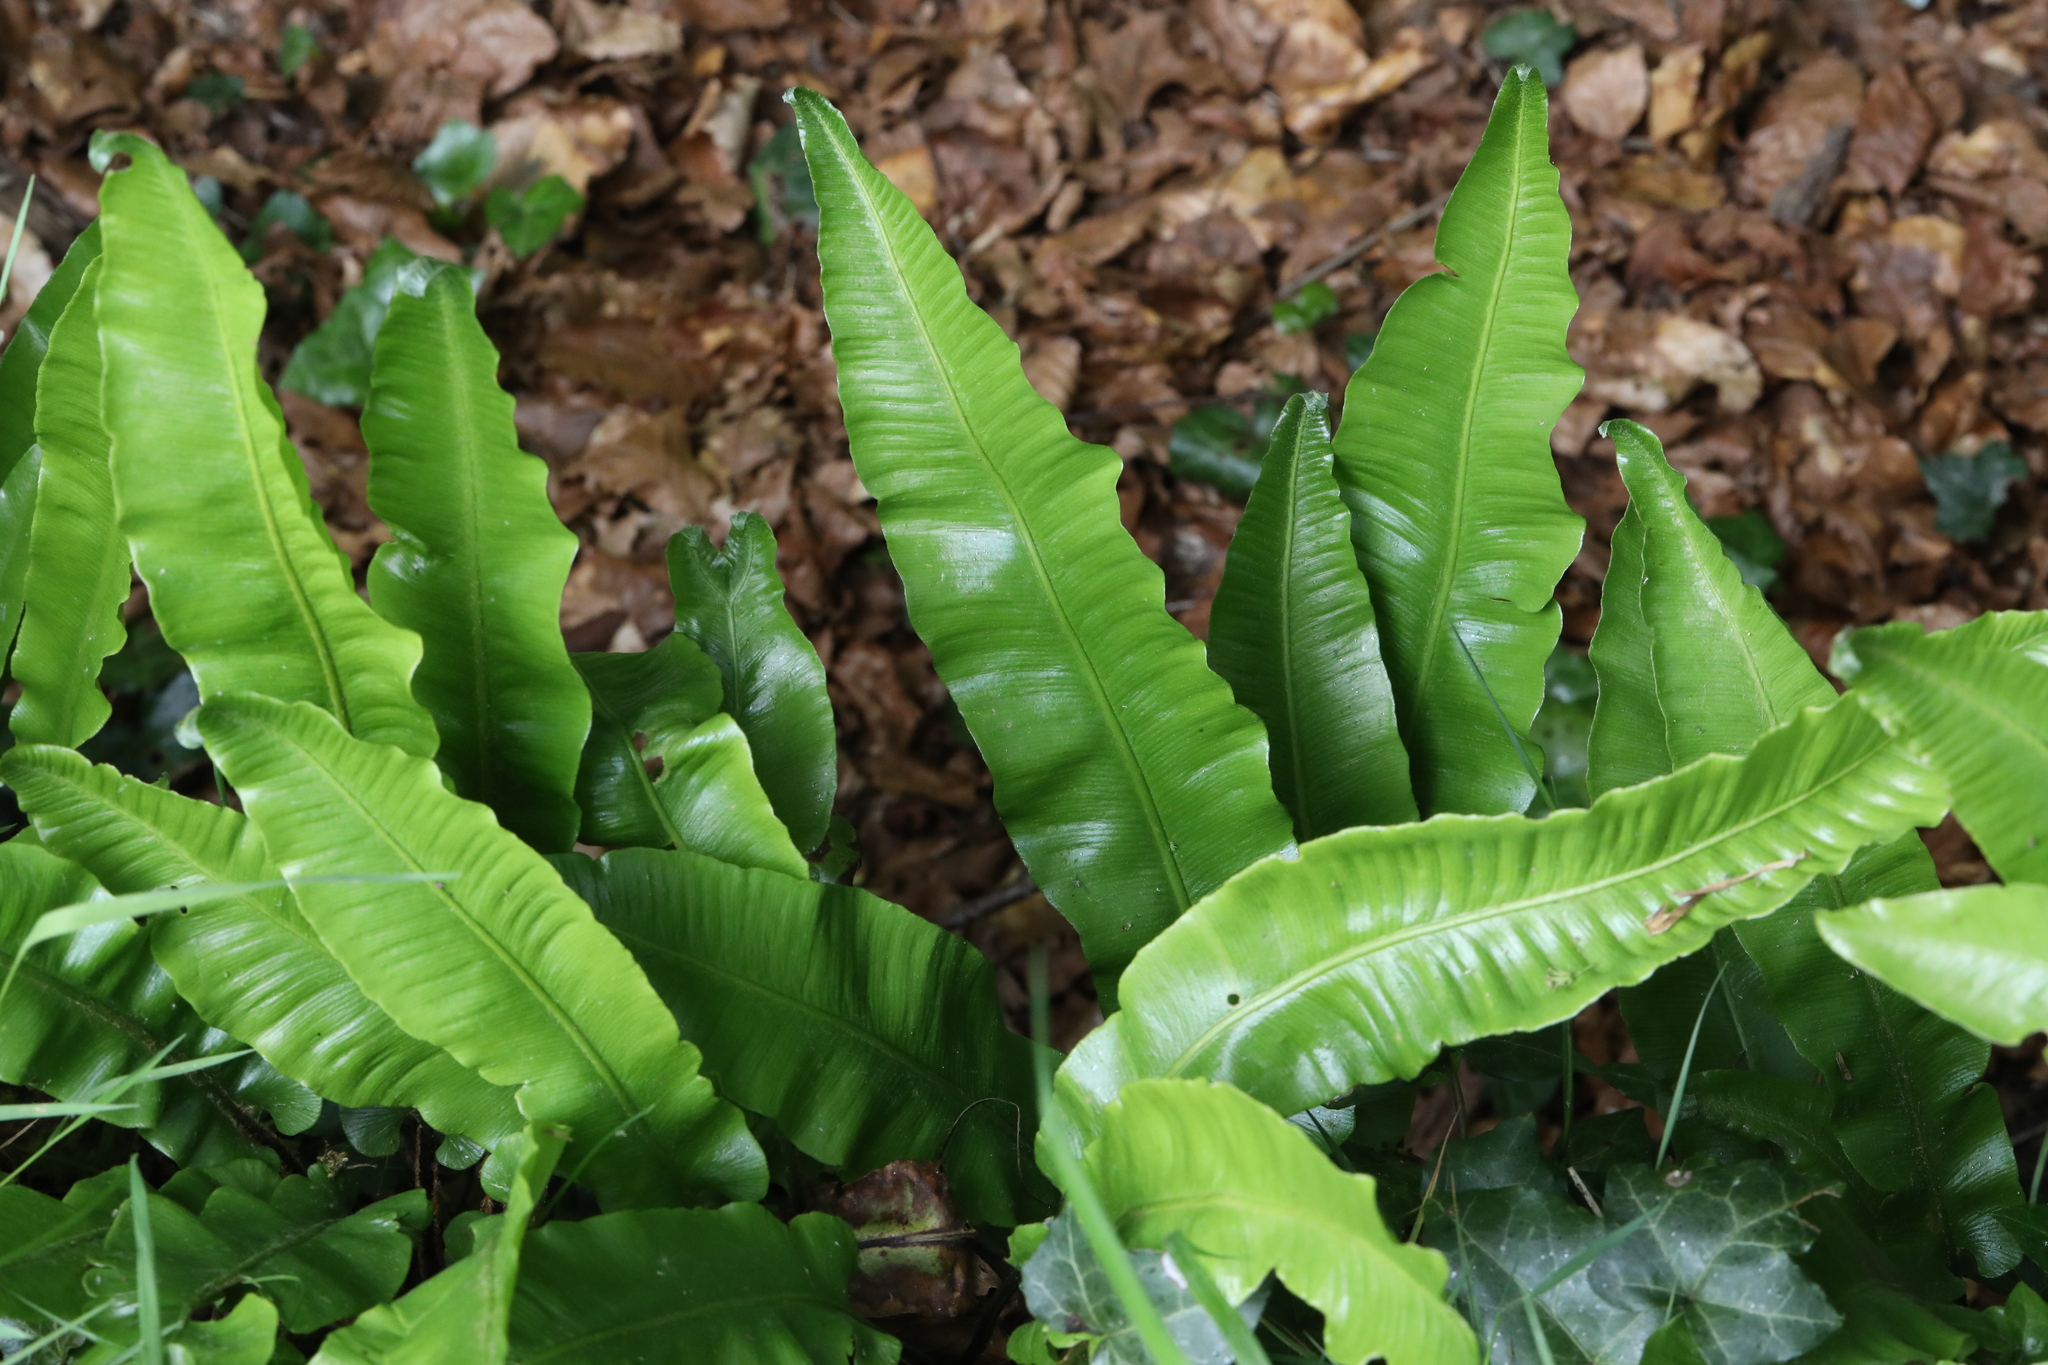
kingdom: Plantae
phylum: Tracheophyta
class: Polypodiopsida
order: Polypodiales
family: Aspleniaceae
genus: Asplenium
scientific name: Asplenium scolopendrium
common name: Hart's-tongue fern
